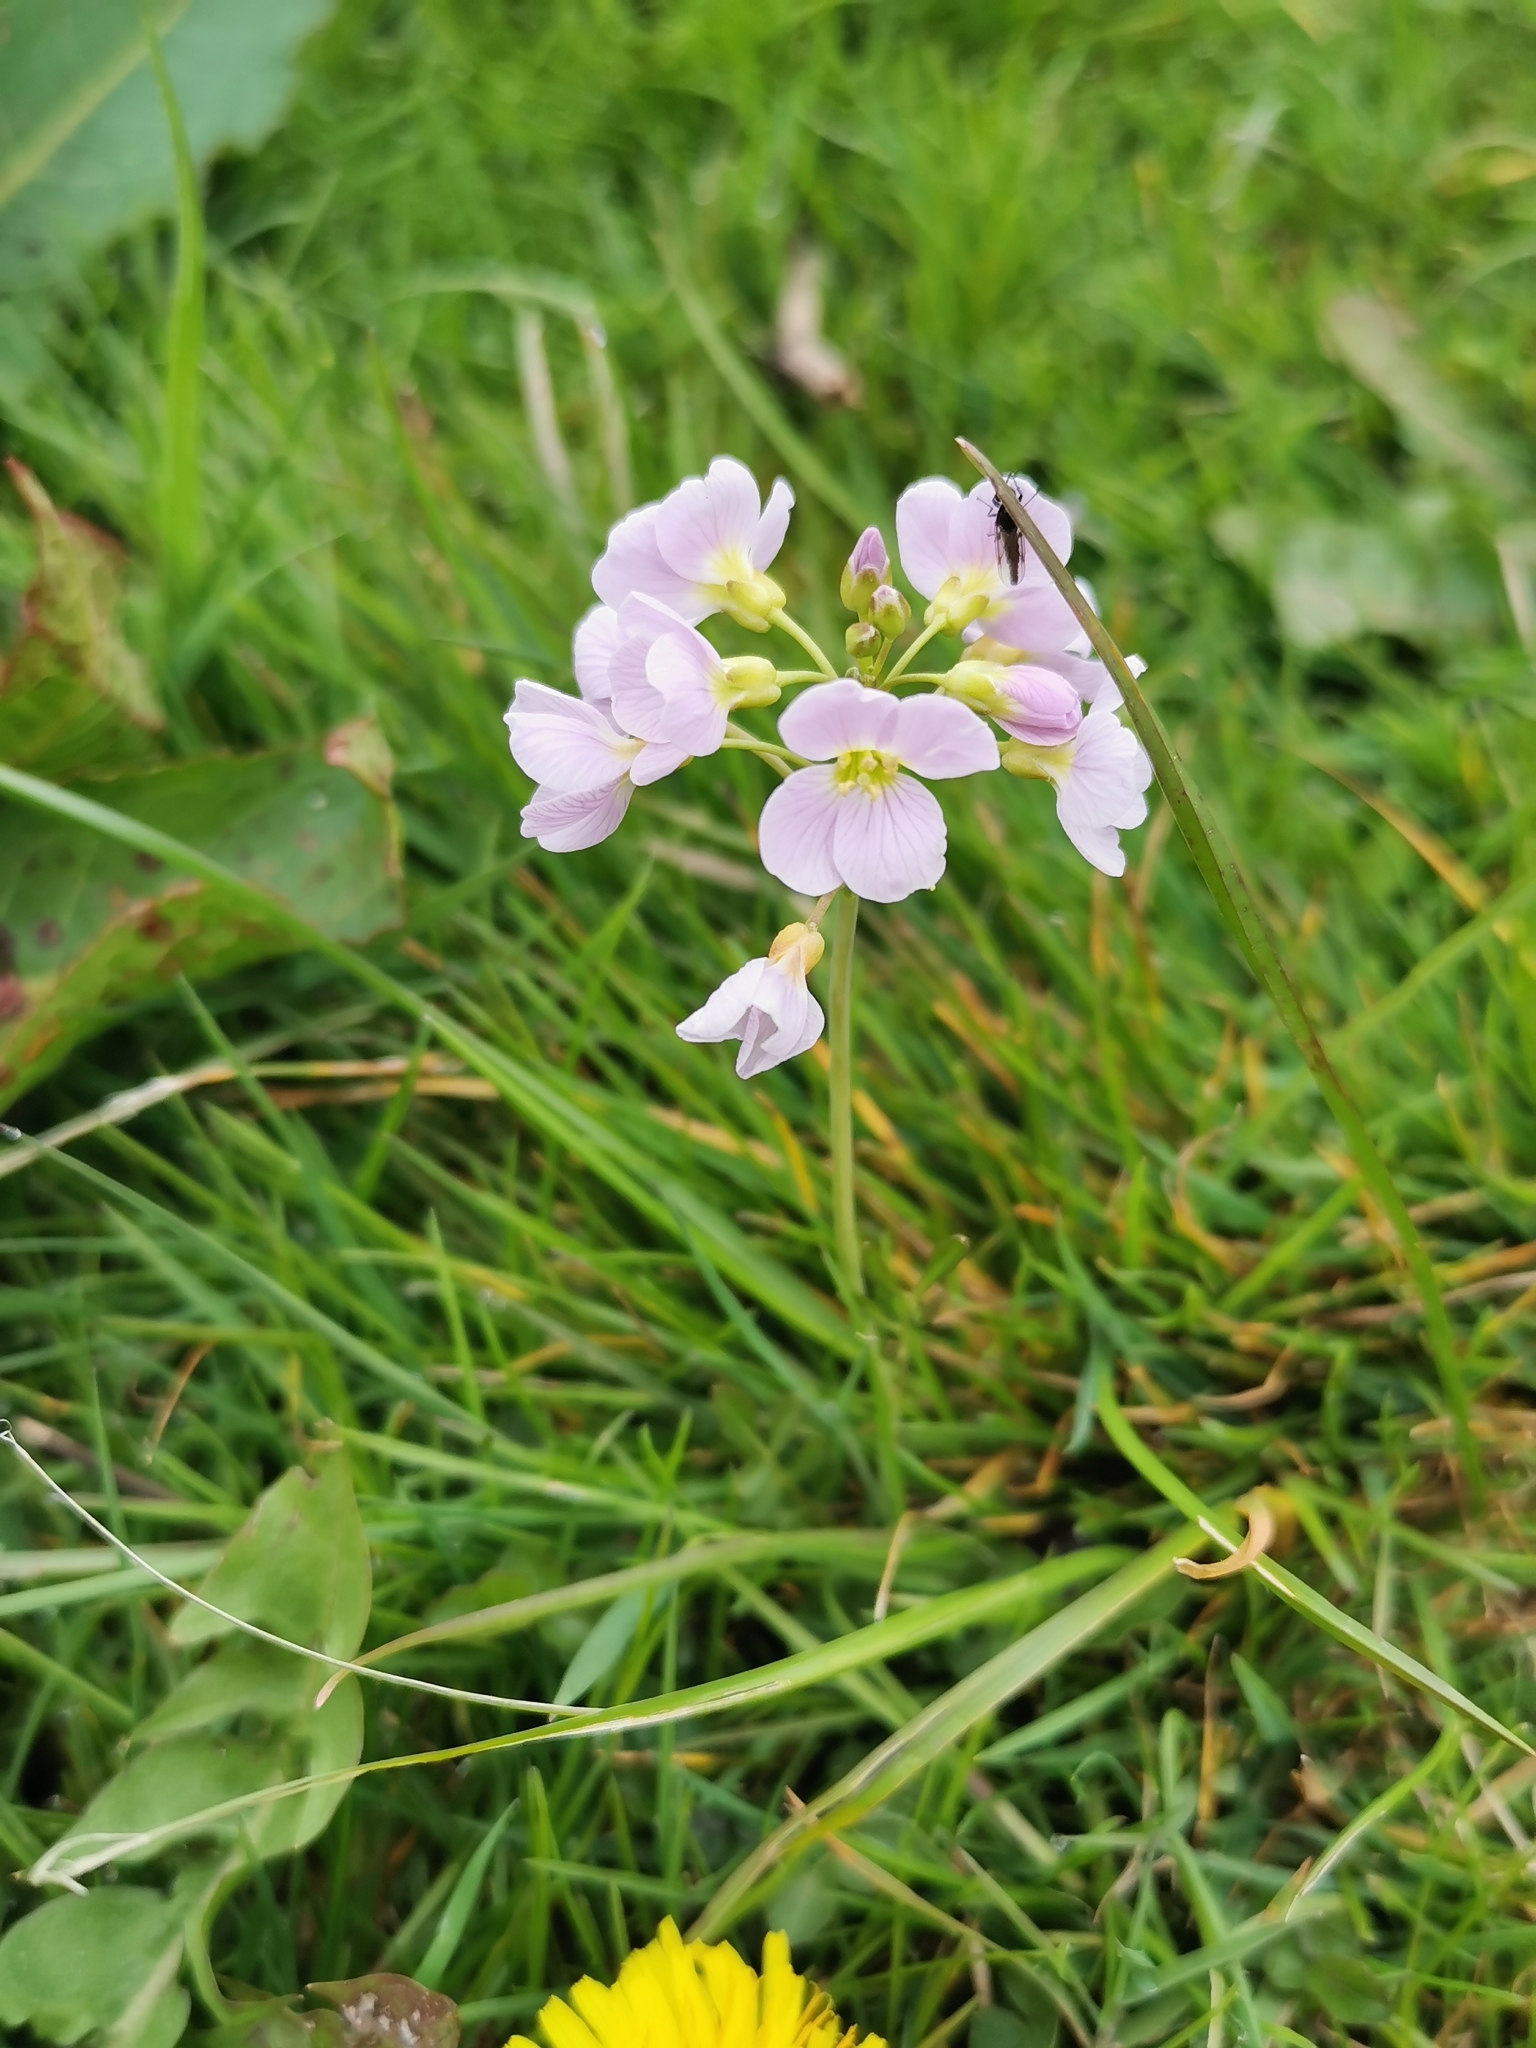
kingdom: Plantae
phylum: Tracheophyta
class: Magnoliopsida
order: Brassicales
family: Brassicaceae
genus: Cardamine
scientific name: Cardamine pratensis
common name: Cuckoo flower
